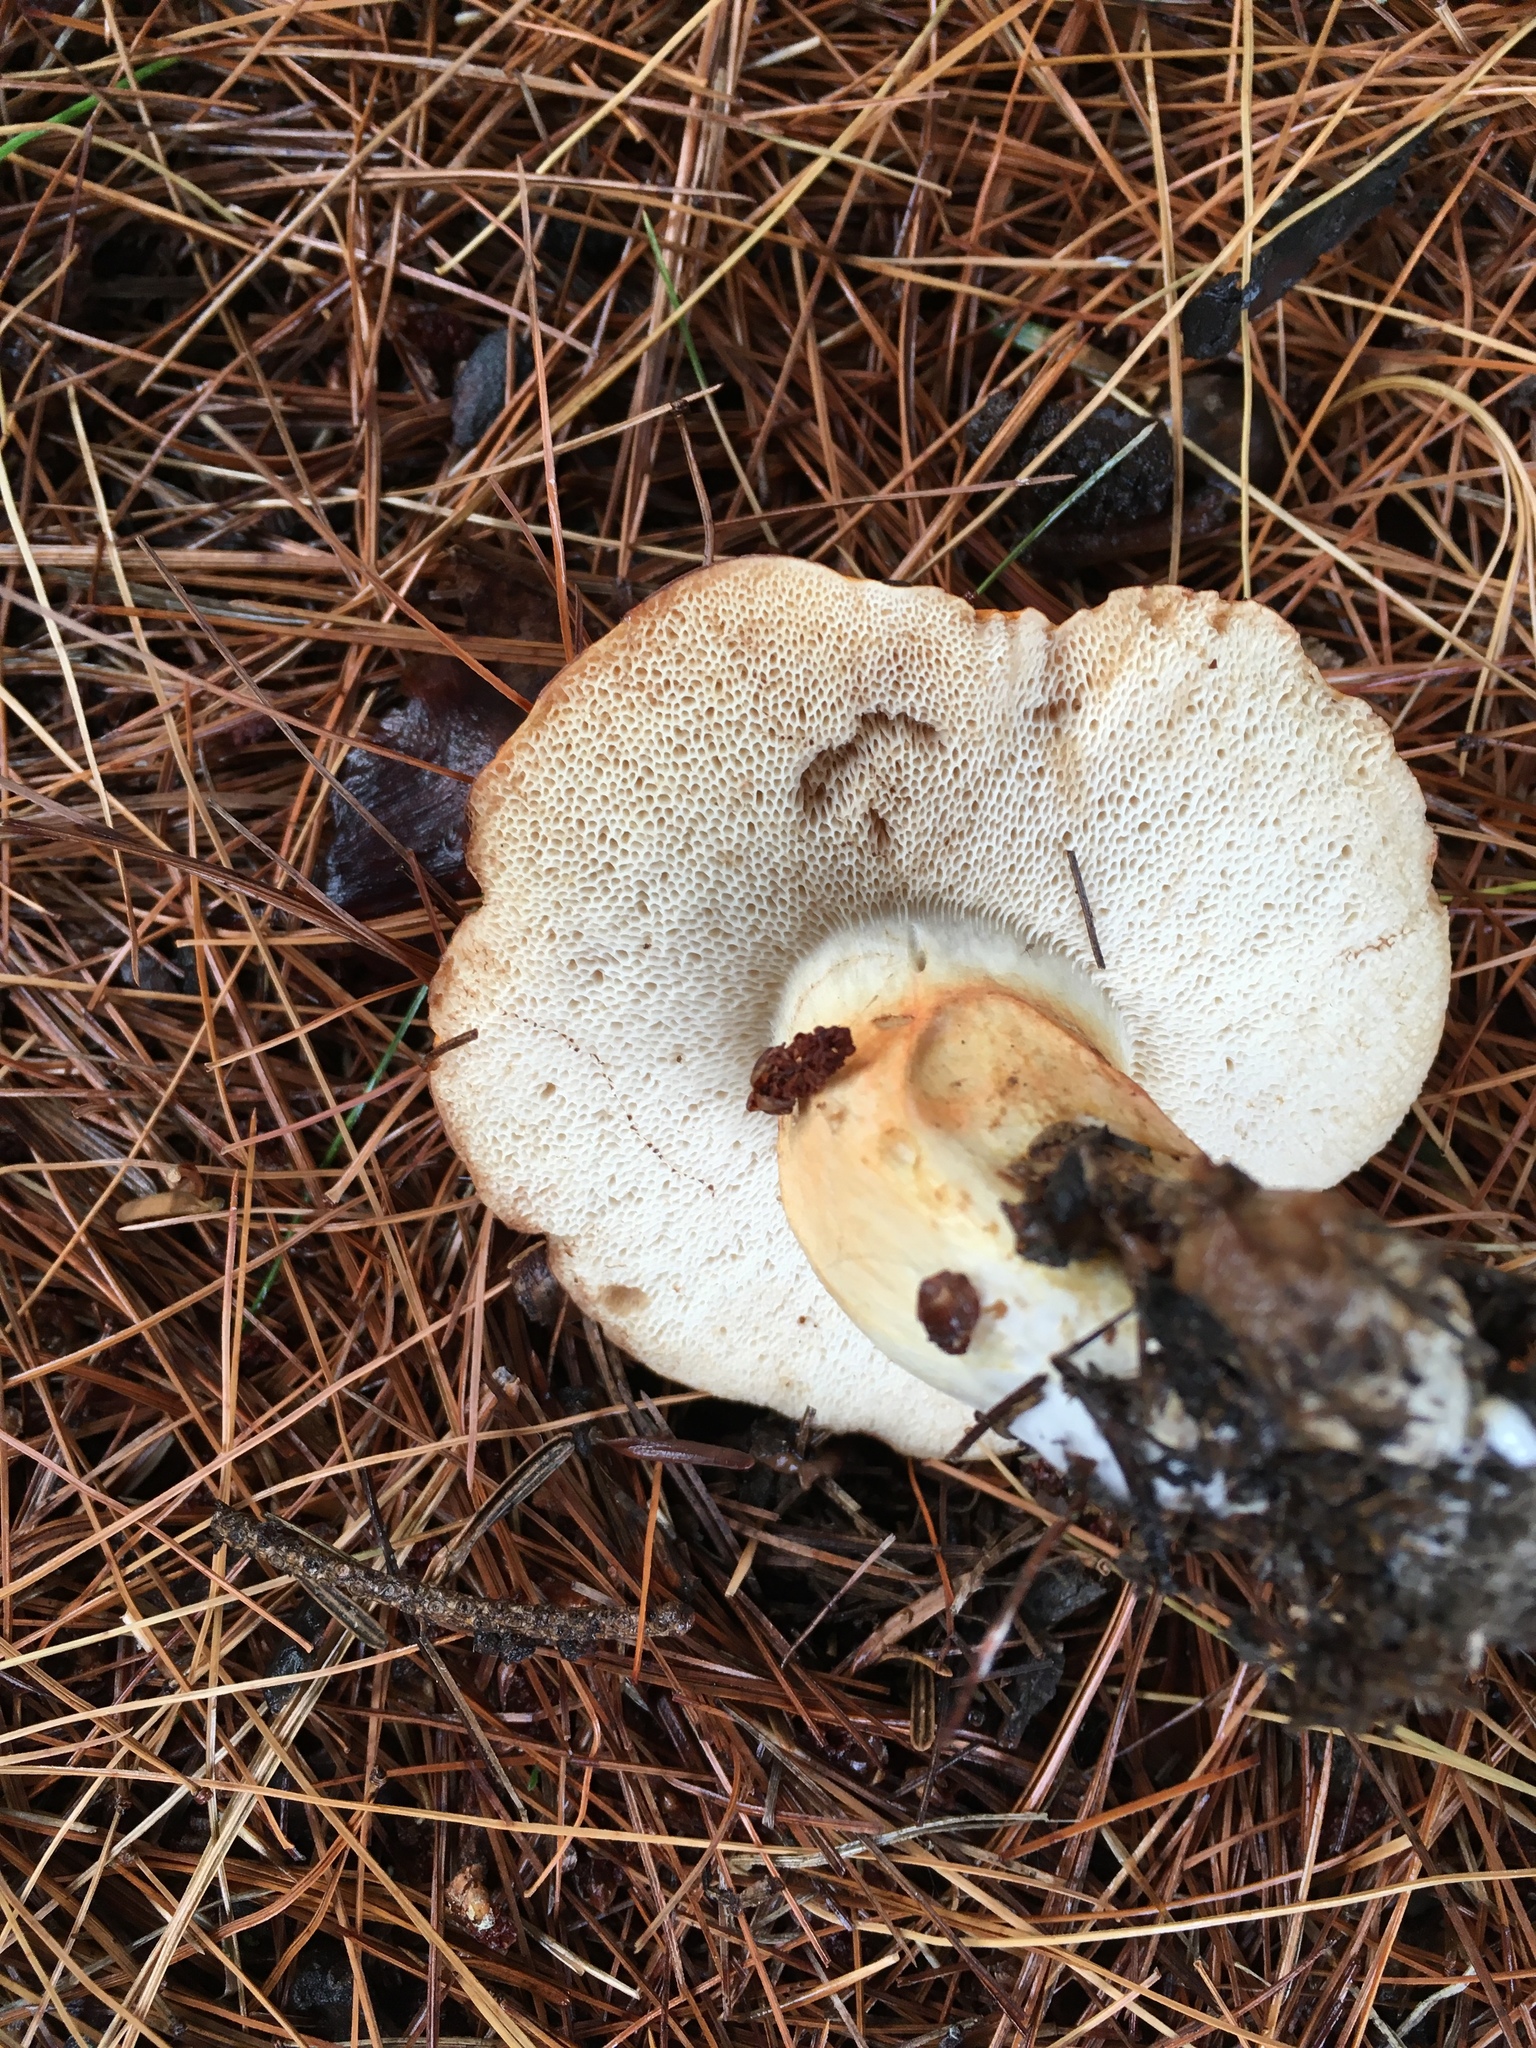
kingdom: Fungi
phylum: Basidiomycota
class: Agaricomycetes
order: Boletales
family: Boletaceae
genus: Tylopilus
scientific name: Tylopilus balloui
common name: Burnt-orange bolete
